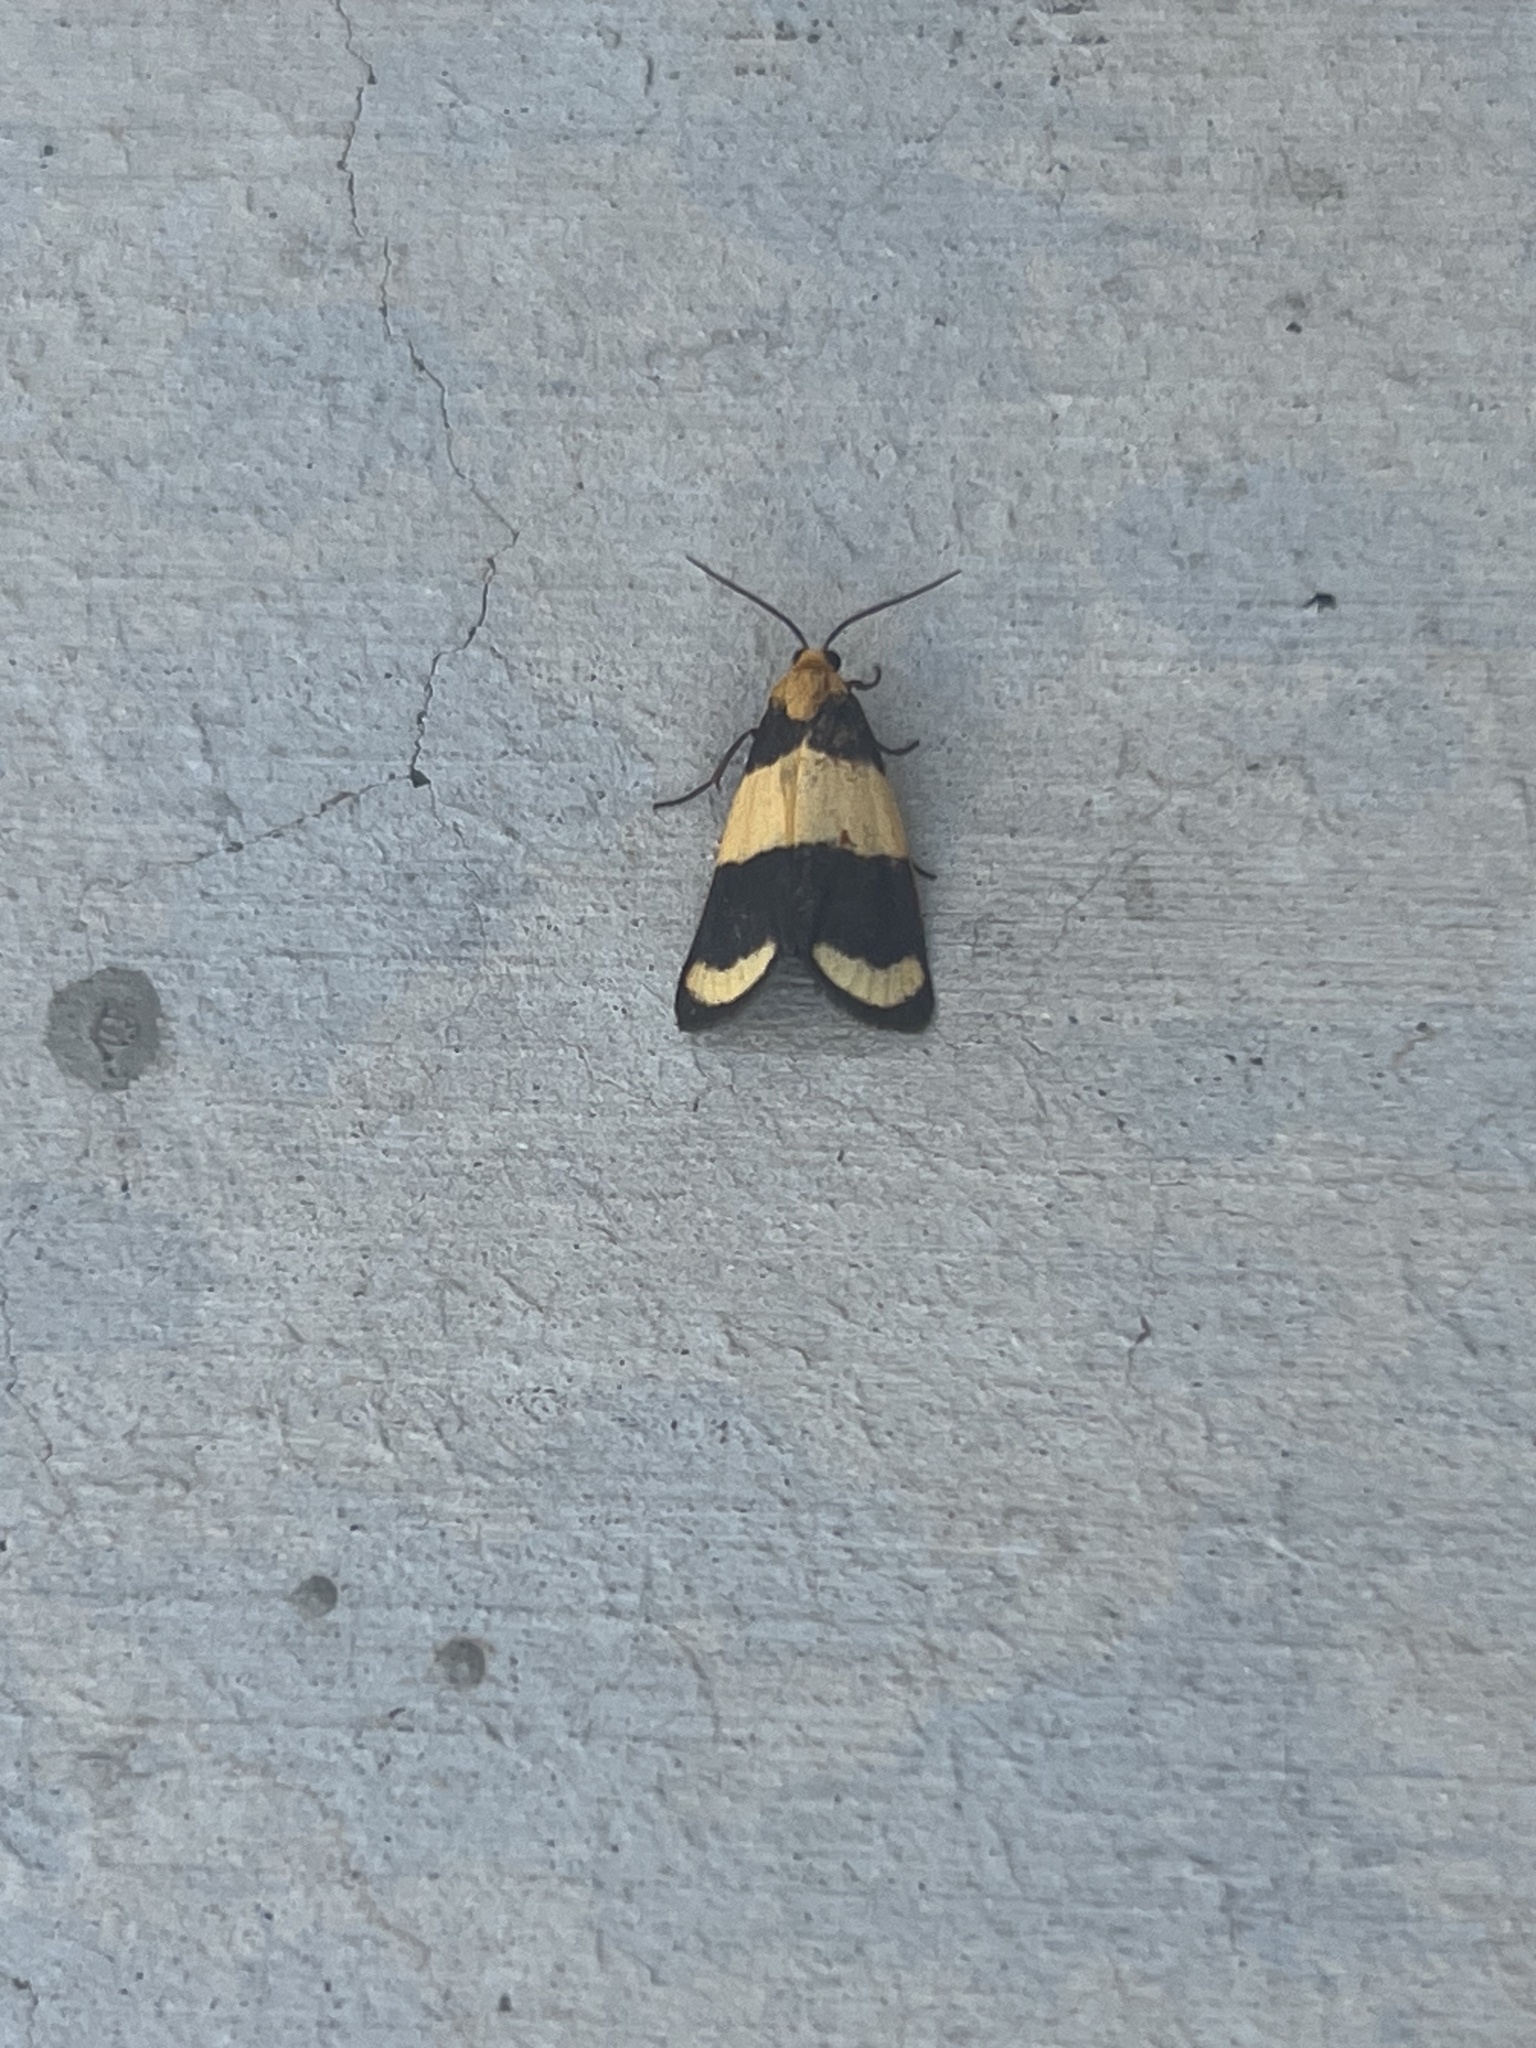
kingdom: Animalia
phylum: Arthropoda
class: Insecta
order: Lepidoptera
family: Erebidae
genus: Eudesmia
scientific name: Eudesmia arida
